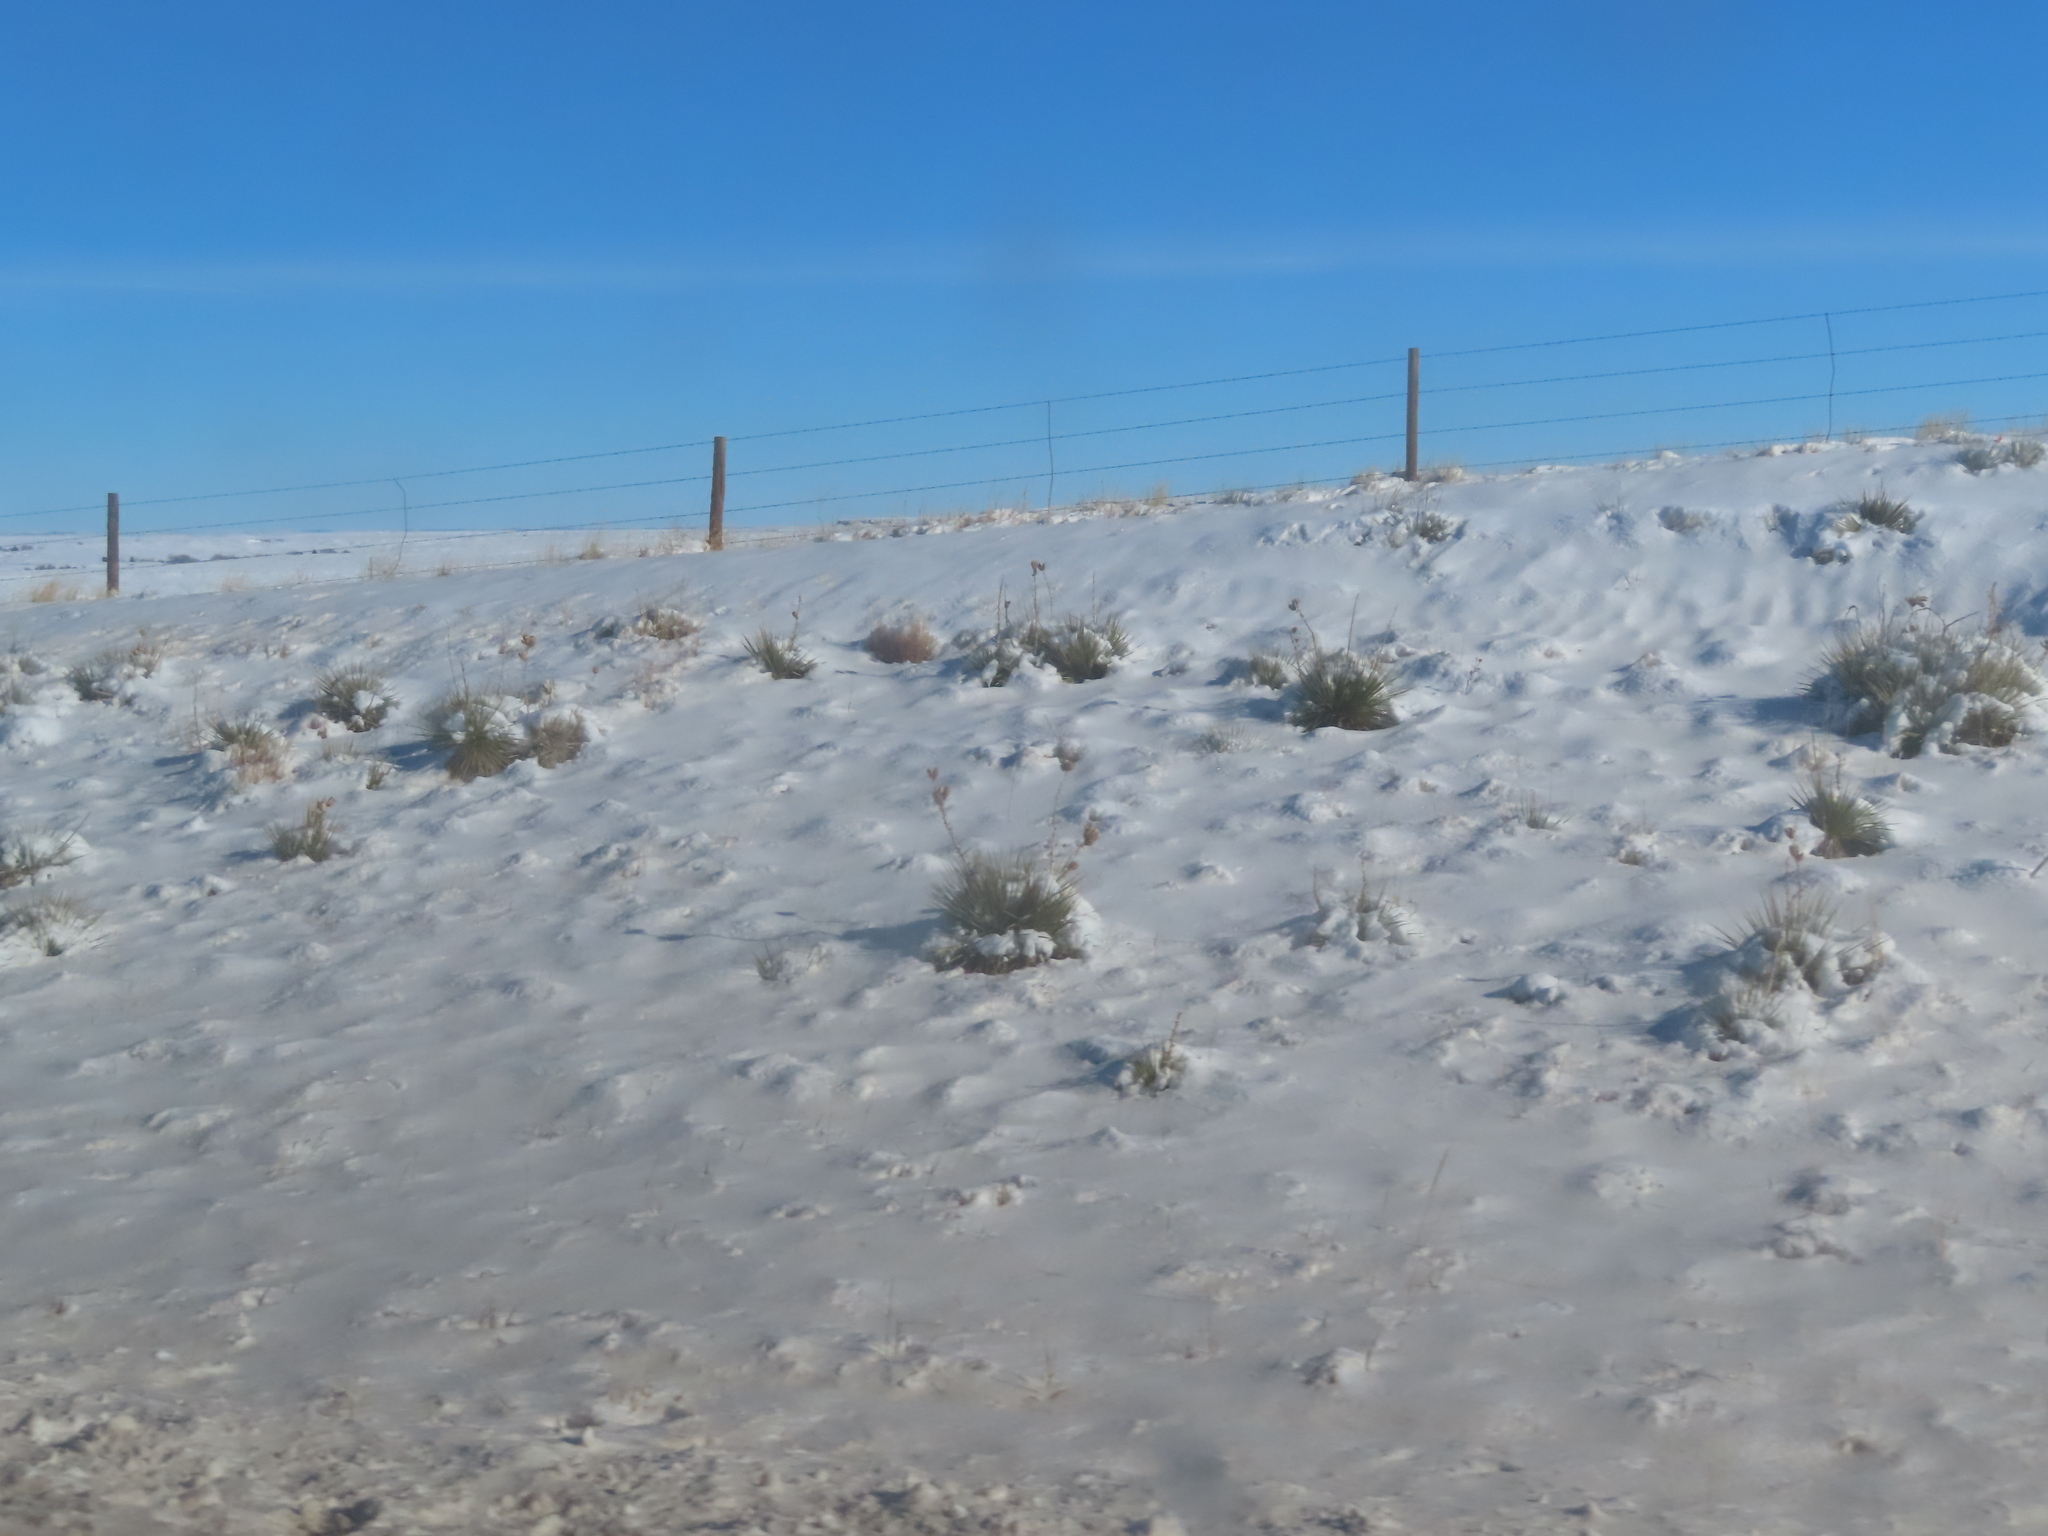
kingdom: Plantae
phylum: Tracheophyta
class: Liliopsida
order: Asparagales
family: Asparagaceae
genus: Yucca
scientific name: Yucca glauca
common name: Great plains yucca
